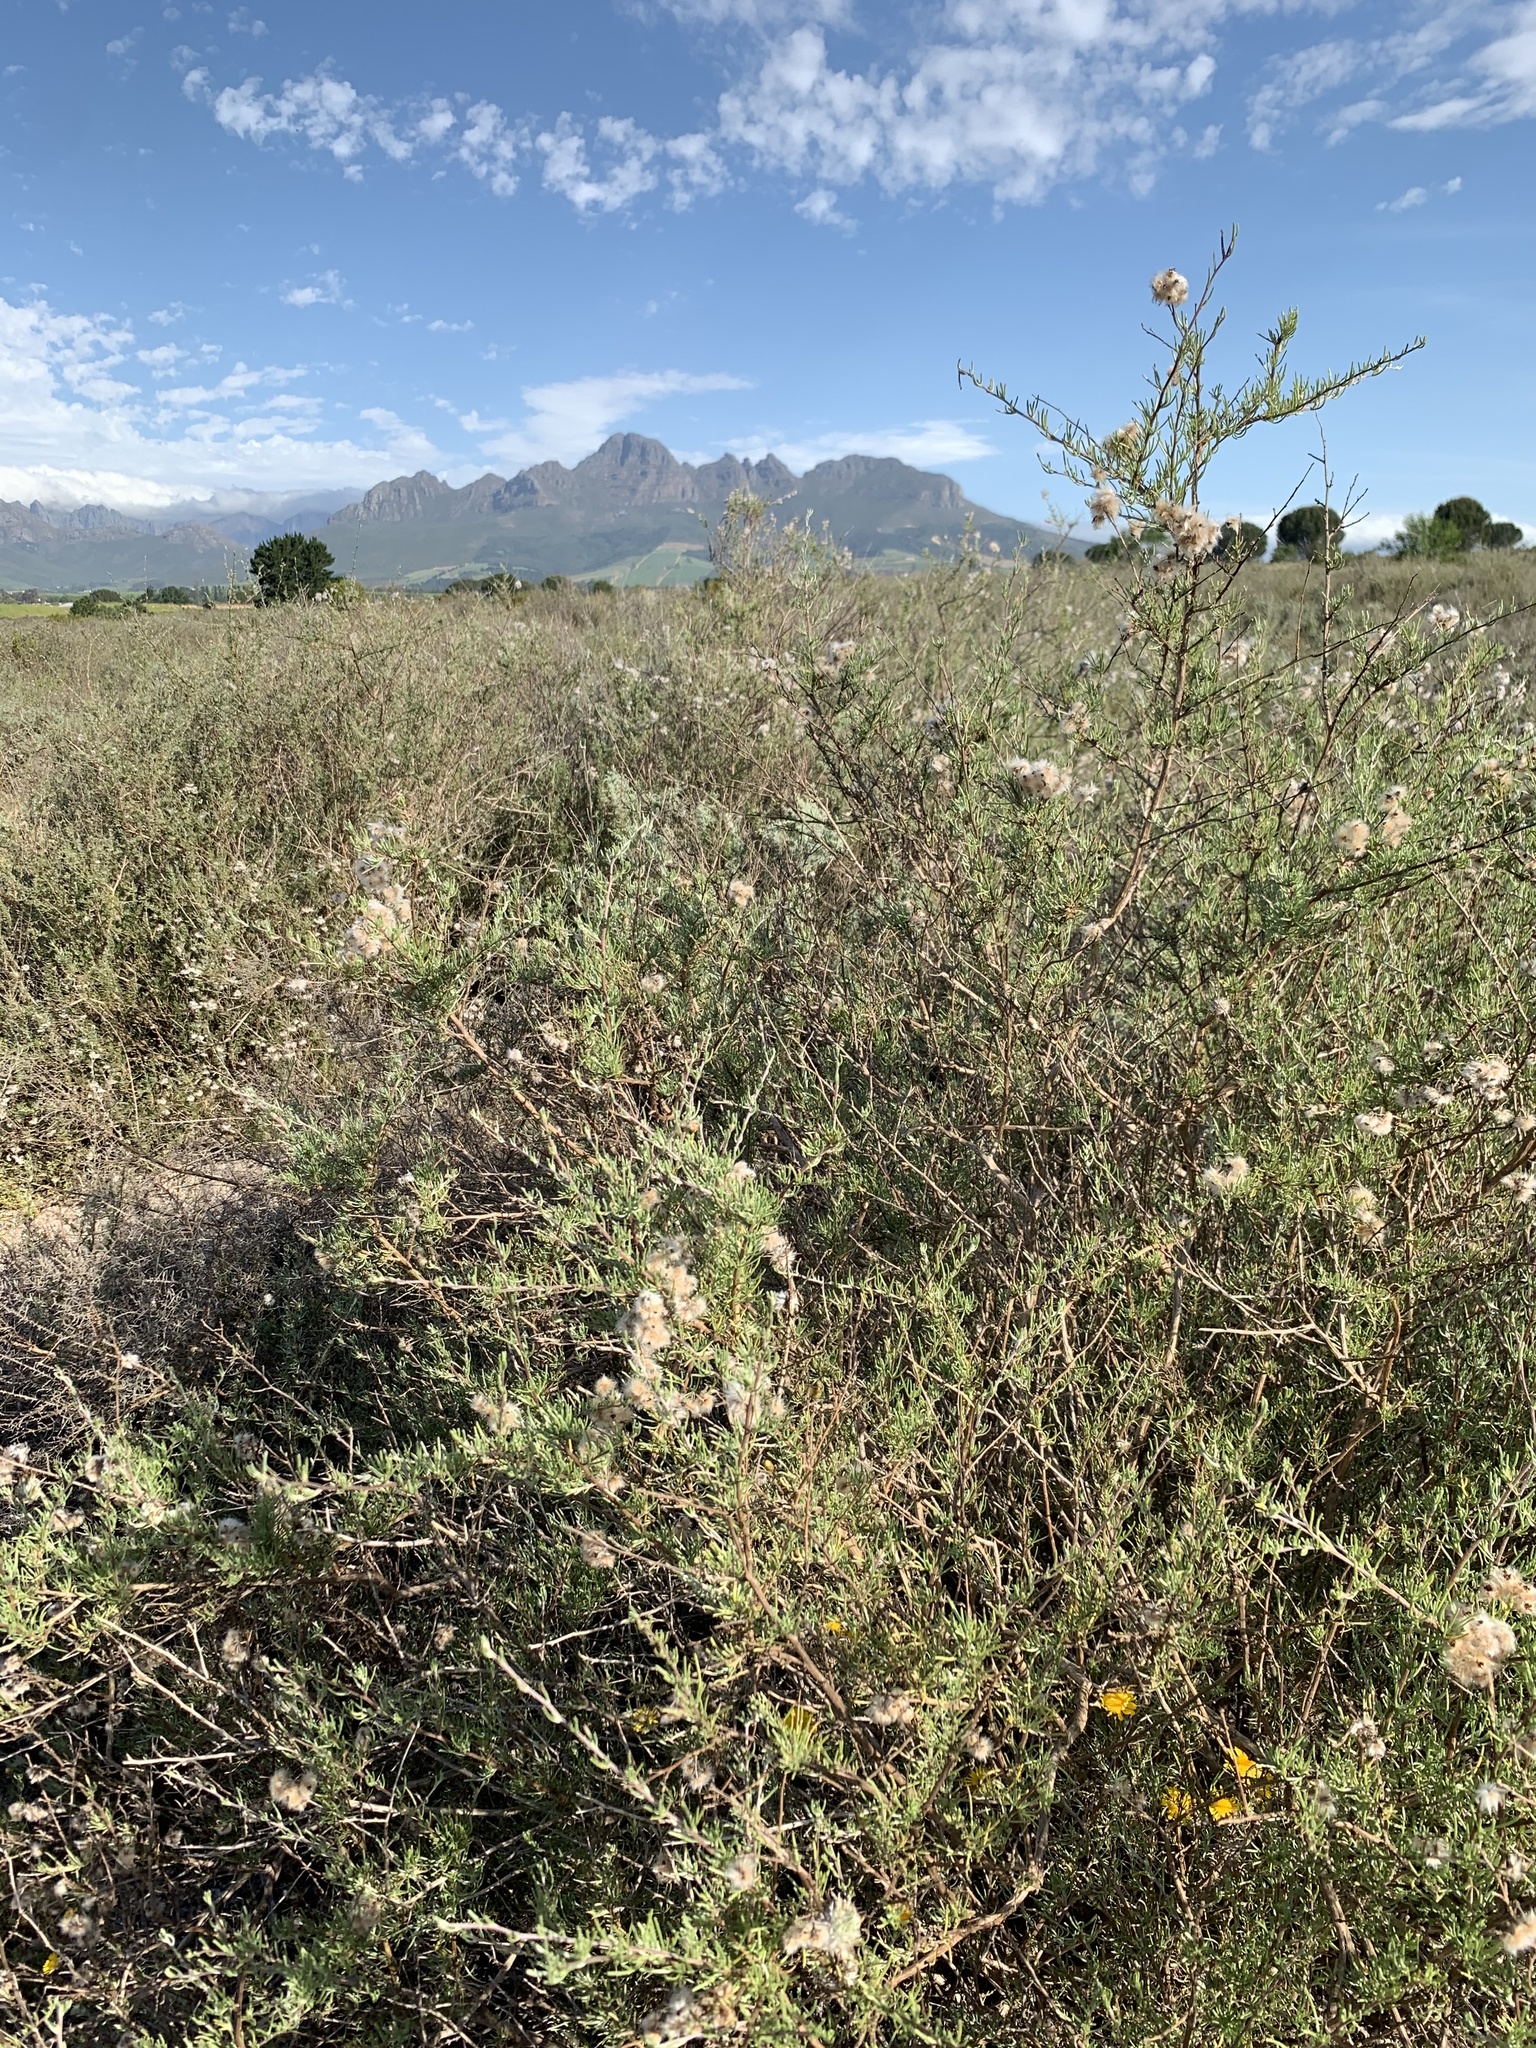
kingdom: Plantae
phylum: Tracheophyta
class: Magnoliopsida
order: Asterales
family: Asteraceae
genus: Eriocephalus
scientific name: Eriocephalus africanus
